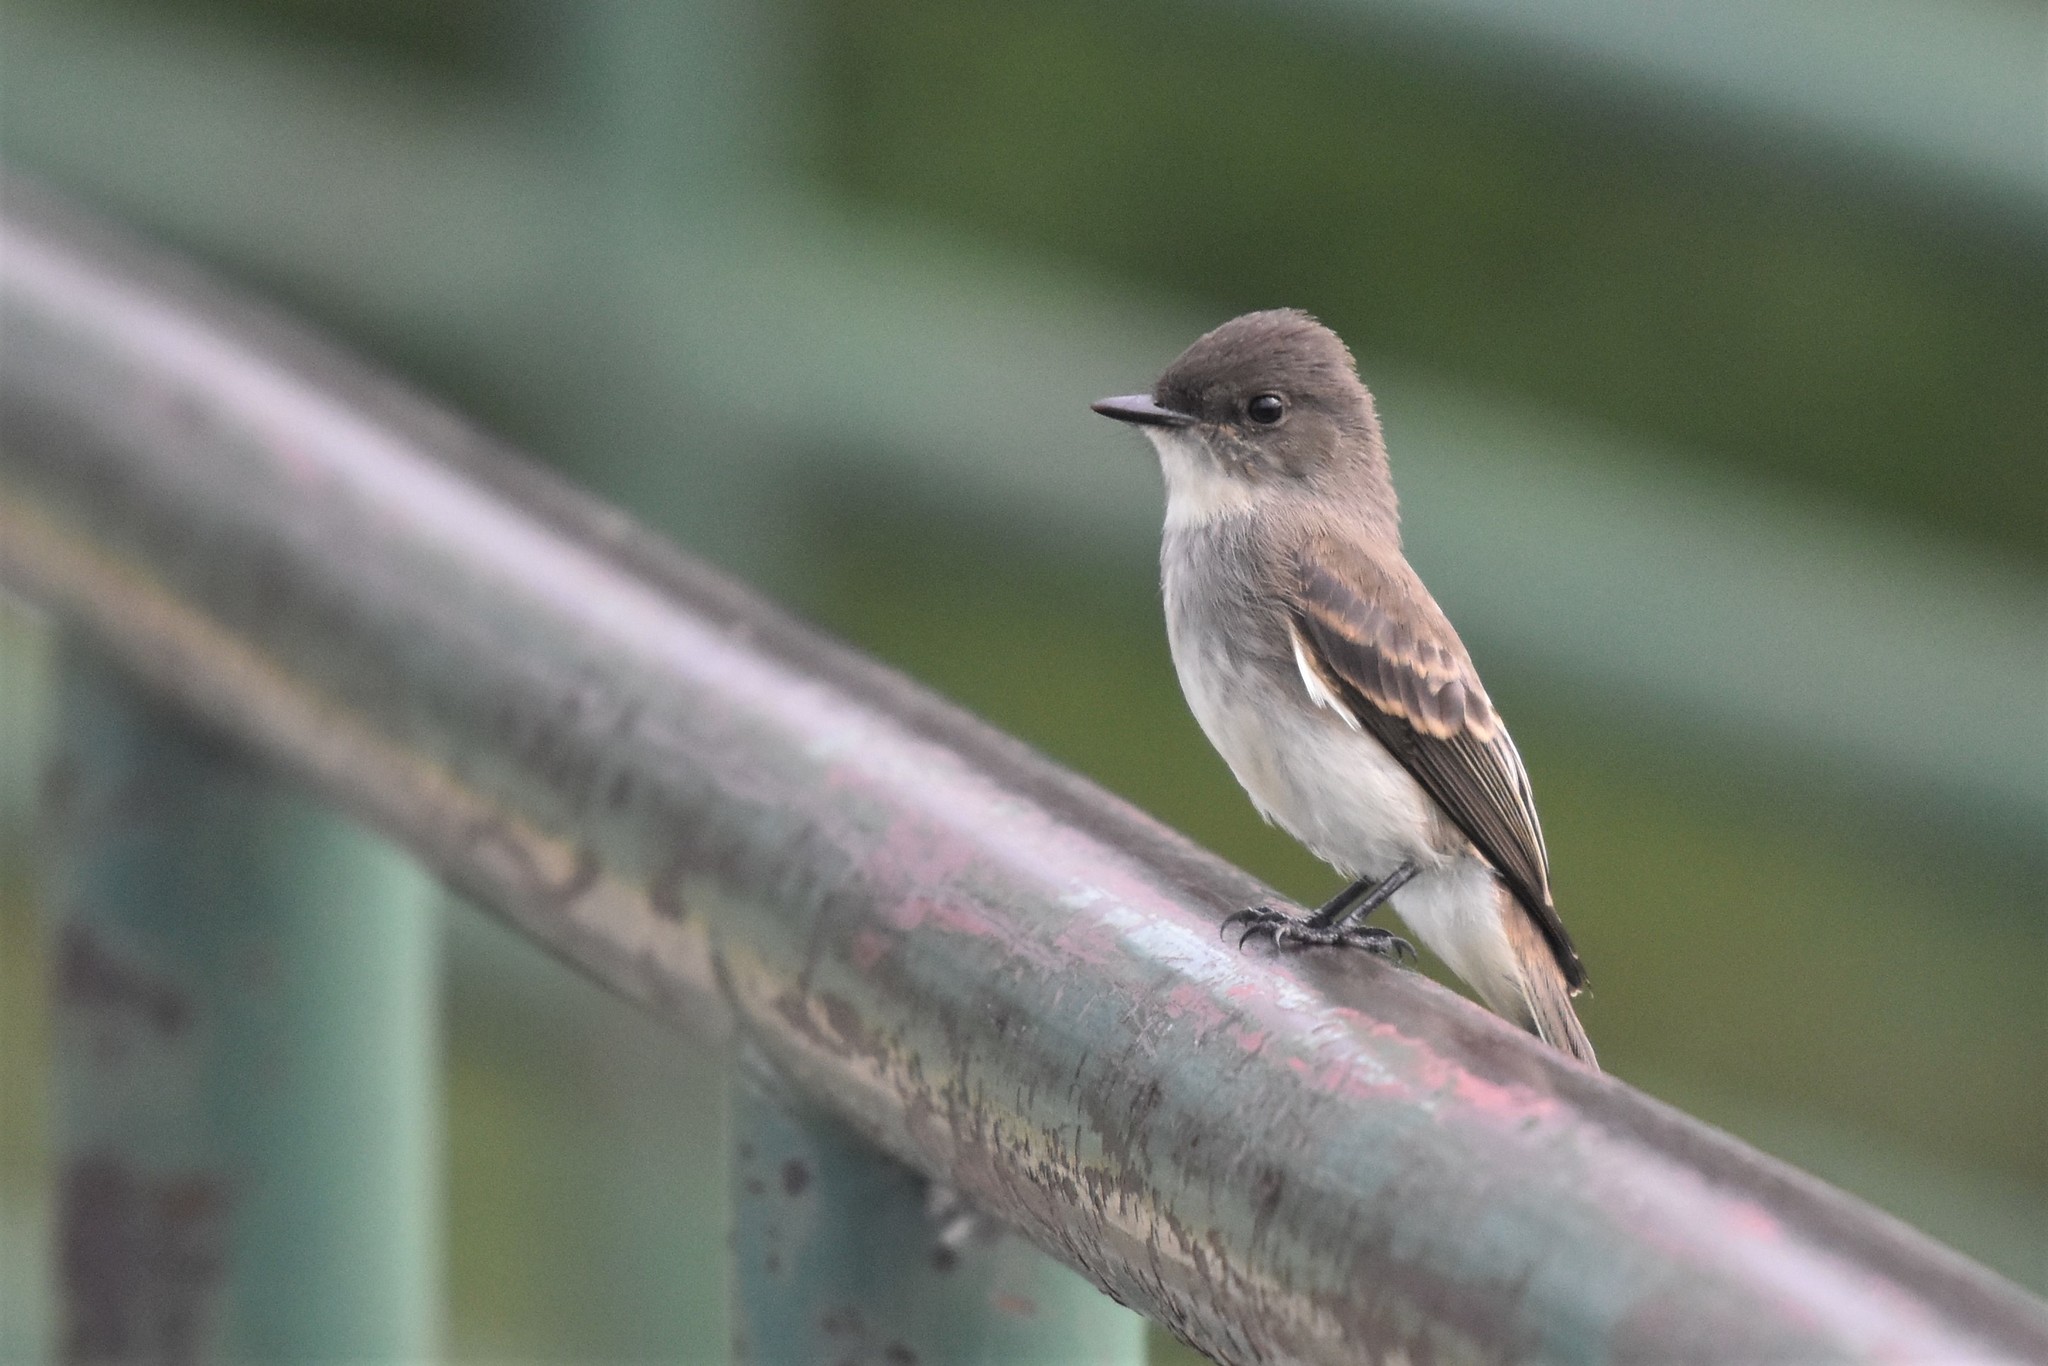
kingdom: Animalia
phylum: Chordata
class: Aves
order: Passeriformes
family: Tyrannidae
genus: Sayornis
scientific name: Sayornis phoebe
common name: Eastern phoebe
